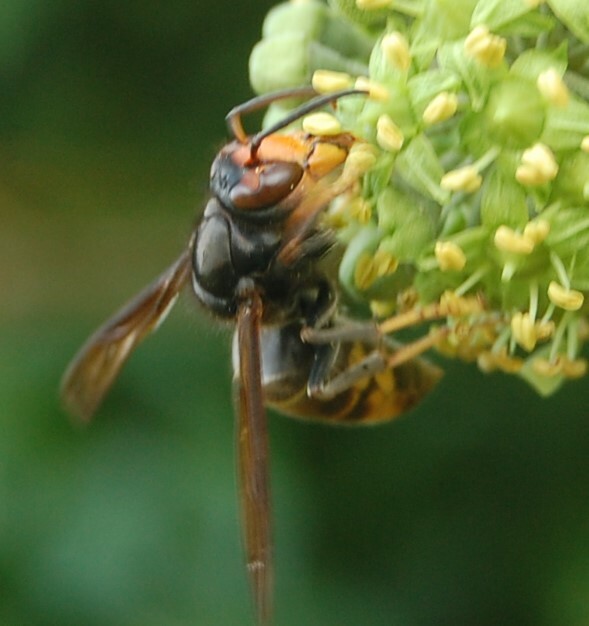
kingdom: Animalia
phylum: Arthropoda
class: Insecta
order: Hymenoptera
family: Vespidae
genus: Vespa
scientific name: Vespa velutina
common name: Asian hornet
